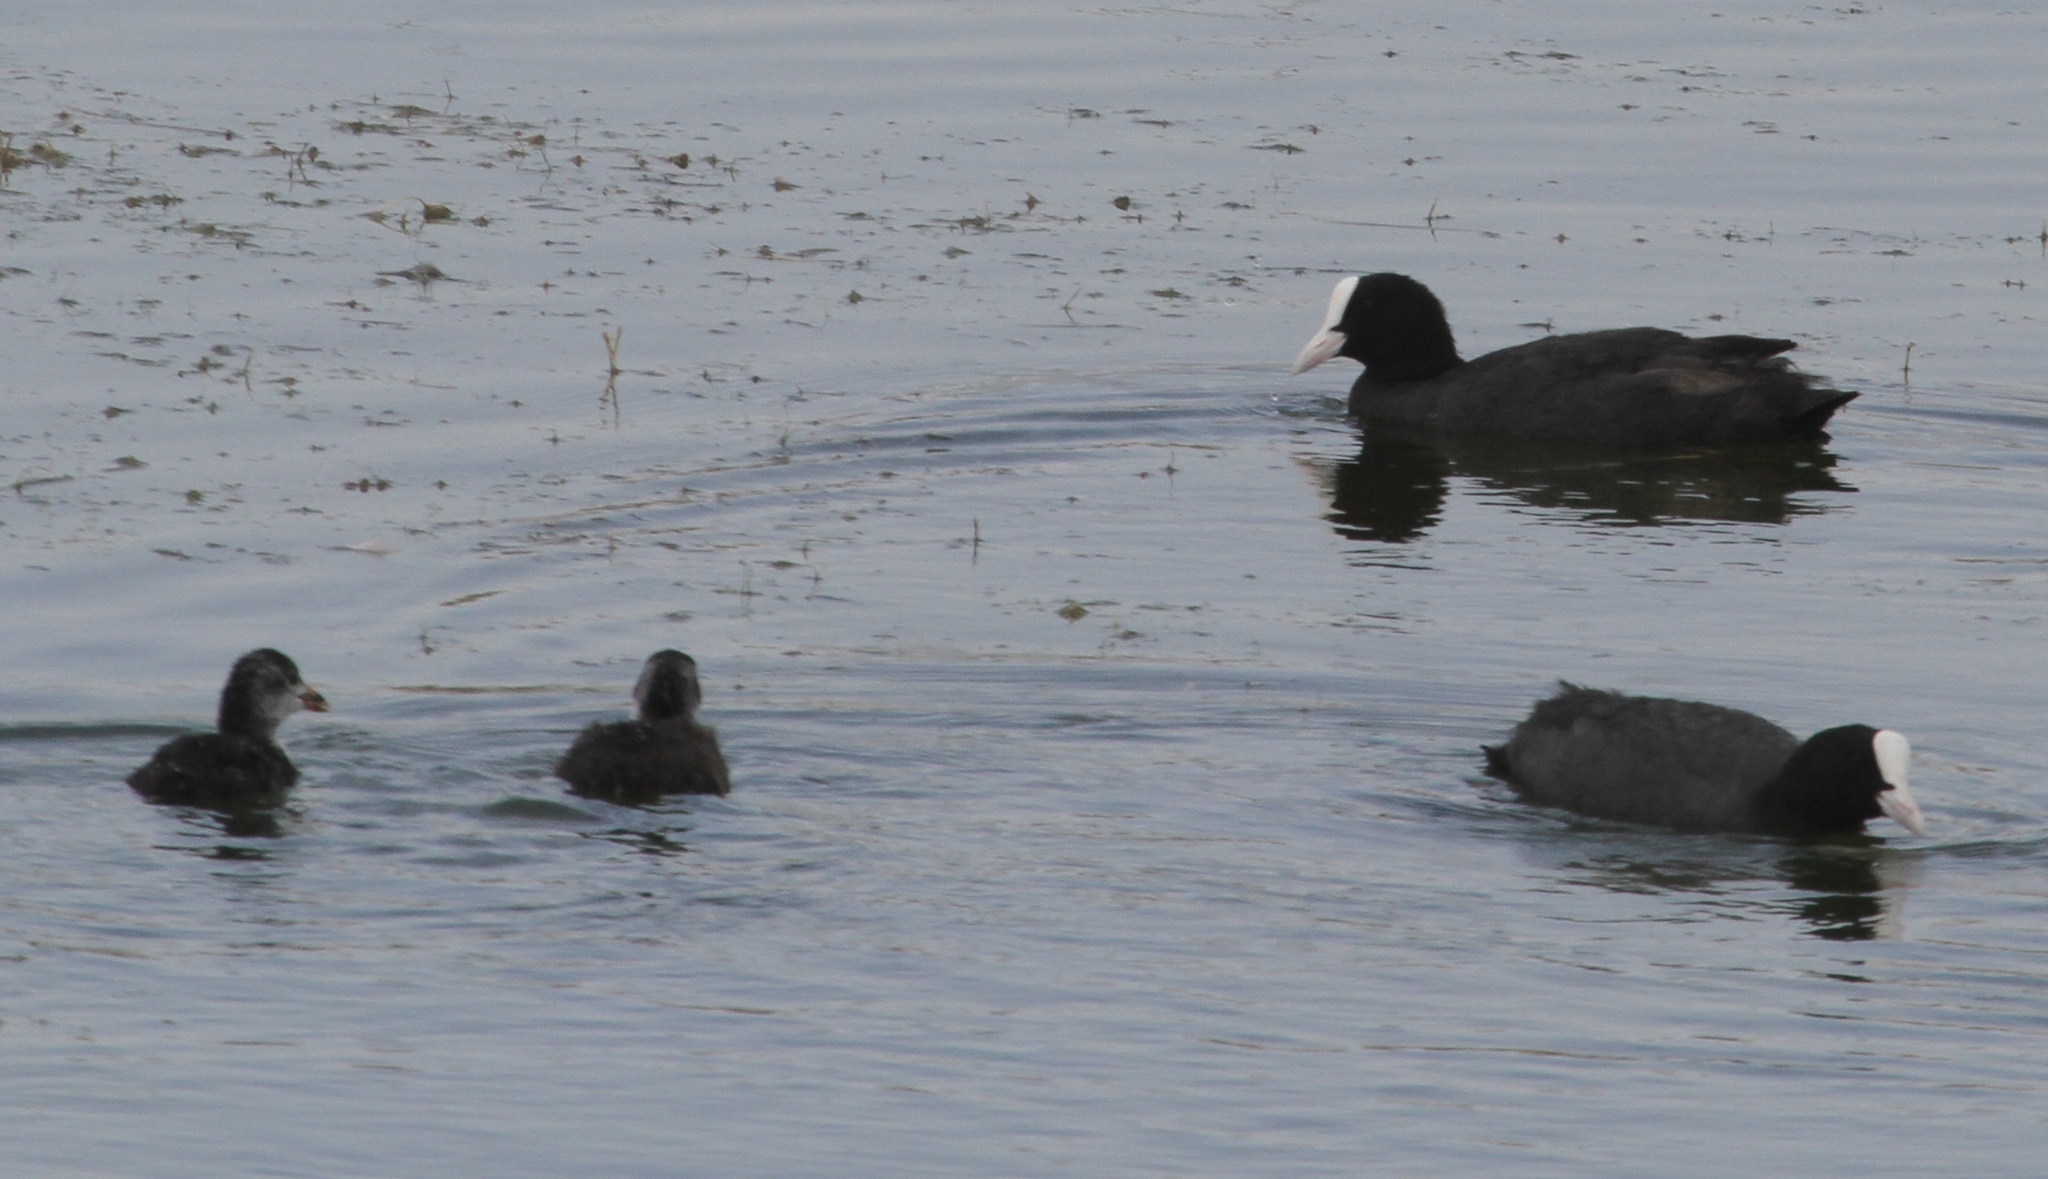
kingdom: Animalia
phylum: Chordata
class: Aves
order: Gruiformes
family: Rallidae
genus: Fulica
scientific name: Fulica atra
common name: Eurasian coot
